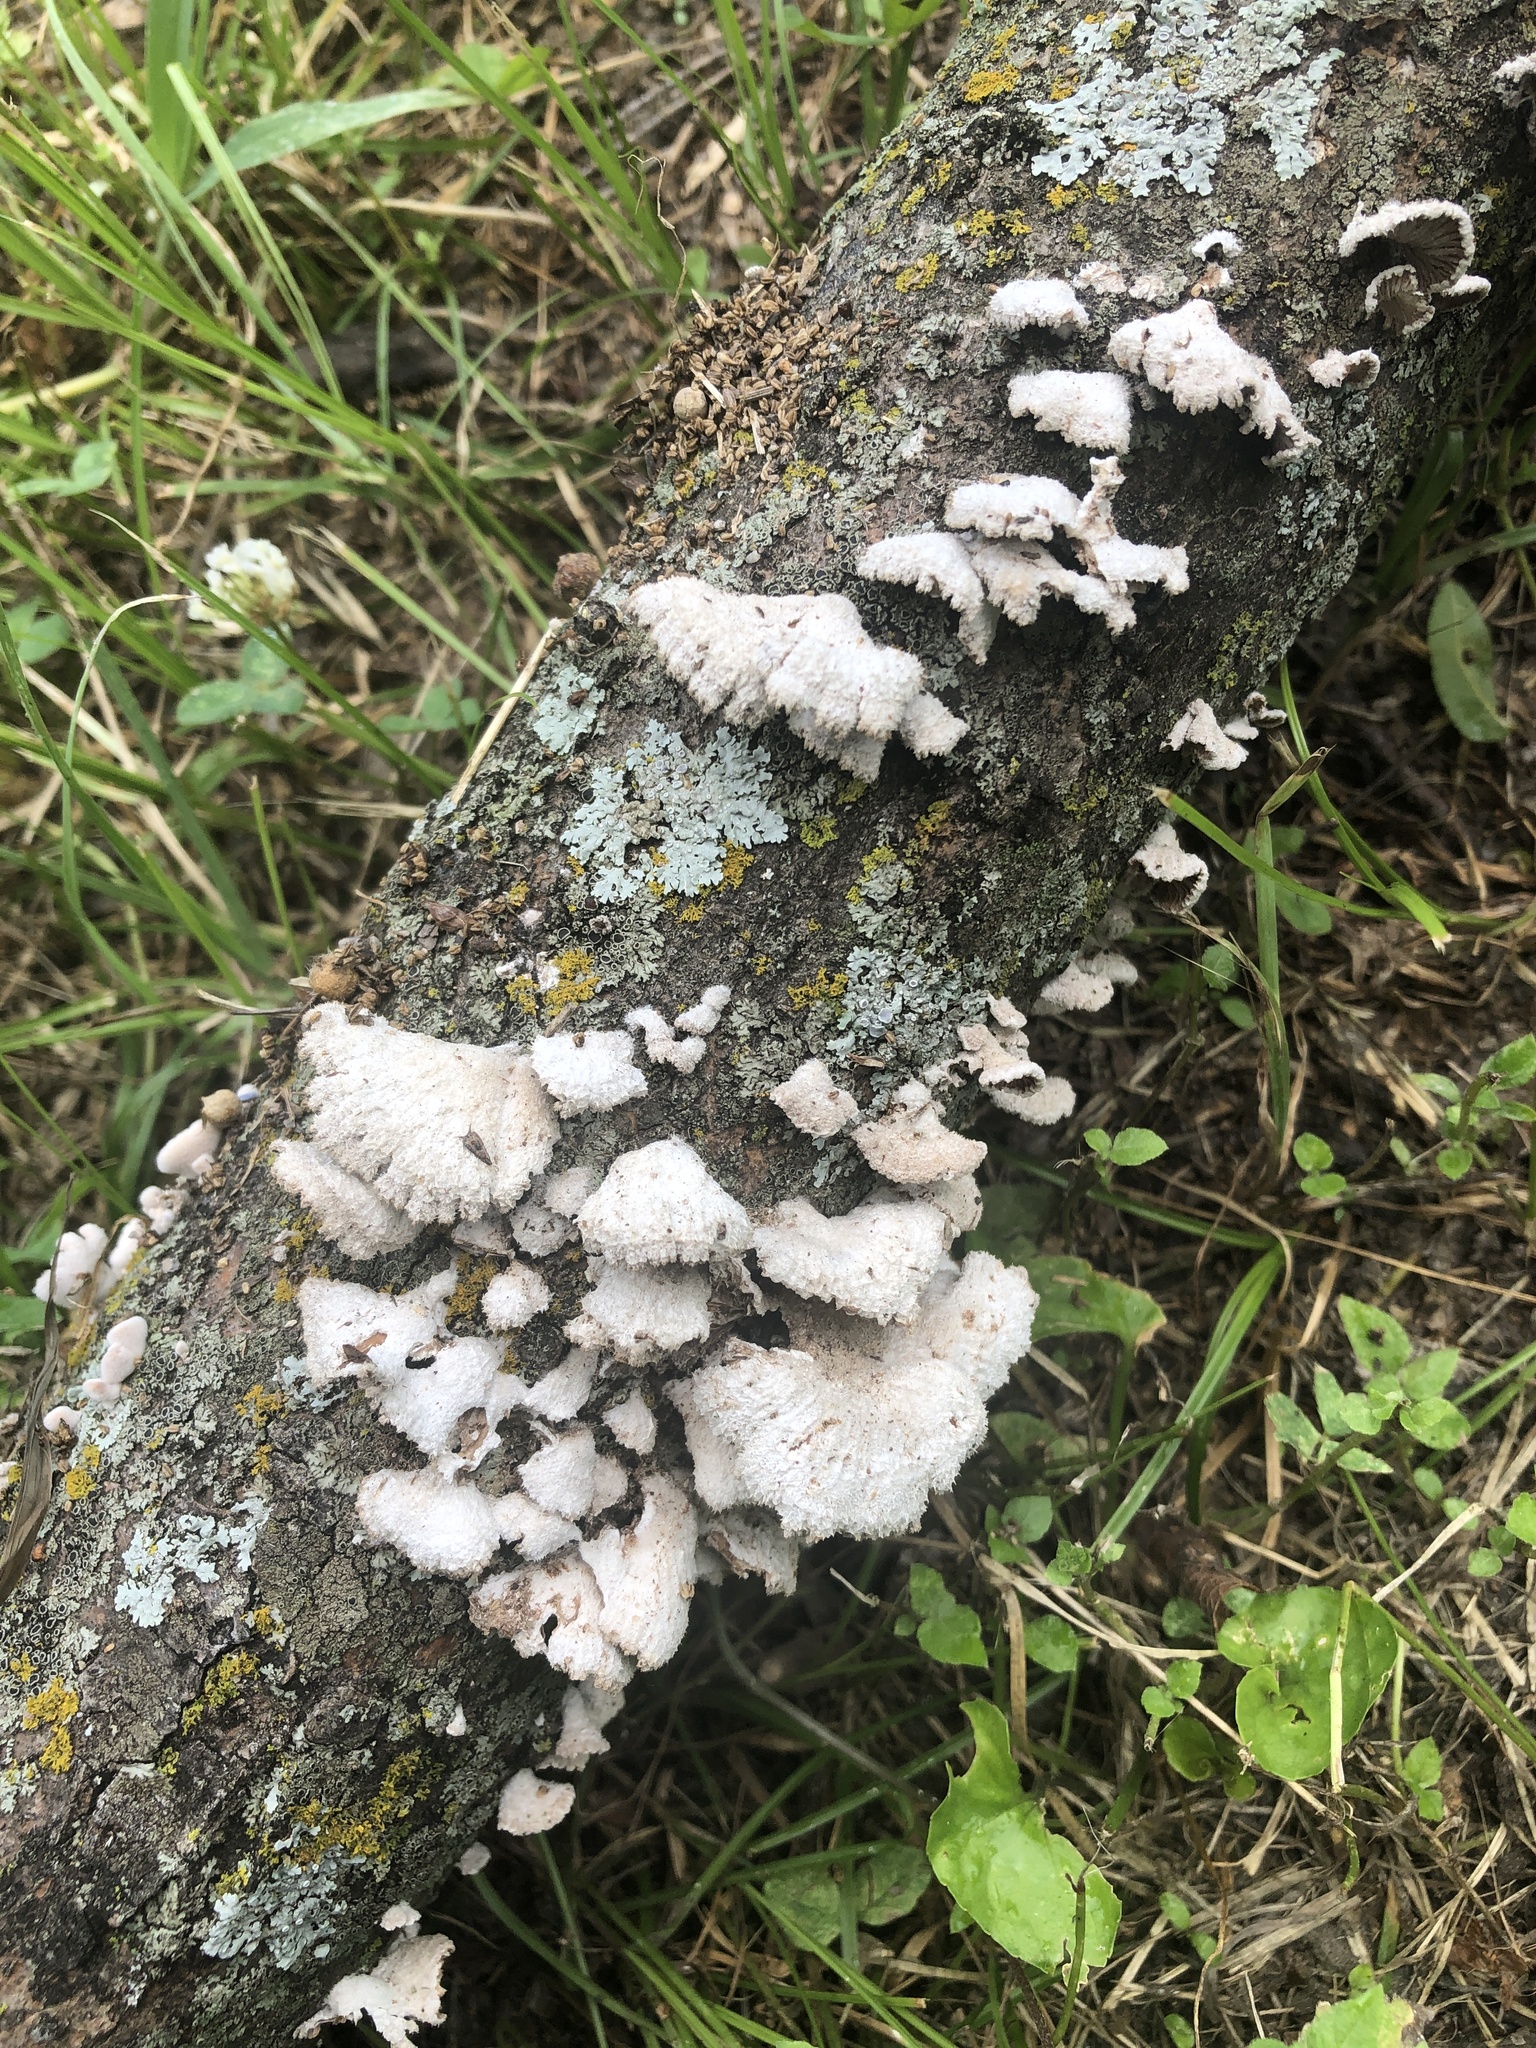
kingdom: Fungi
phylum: Basidiomycota
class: Agaricomycetes
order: Agaricales
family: Schizophyllaceae
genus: Schizophyllum
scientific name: Schizophyllum commune
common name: Common porecrust
